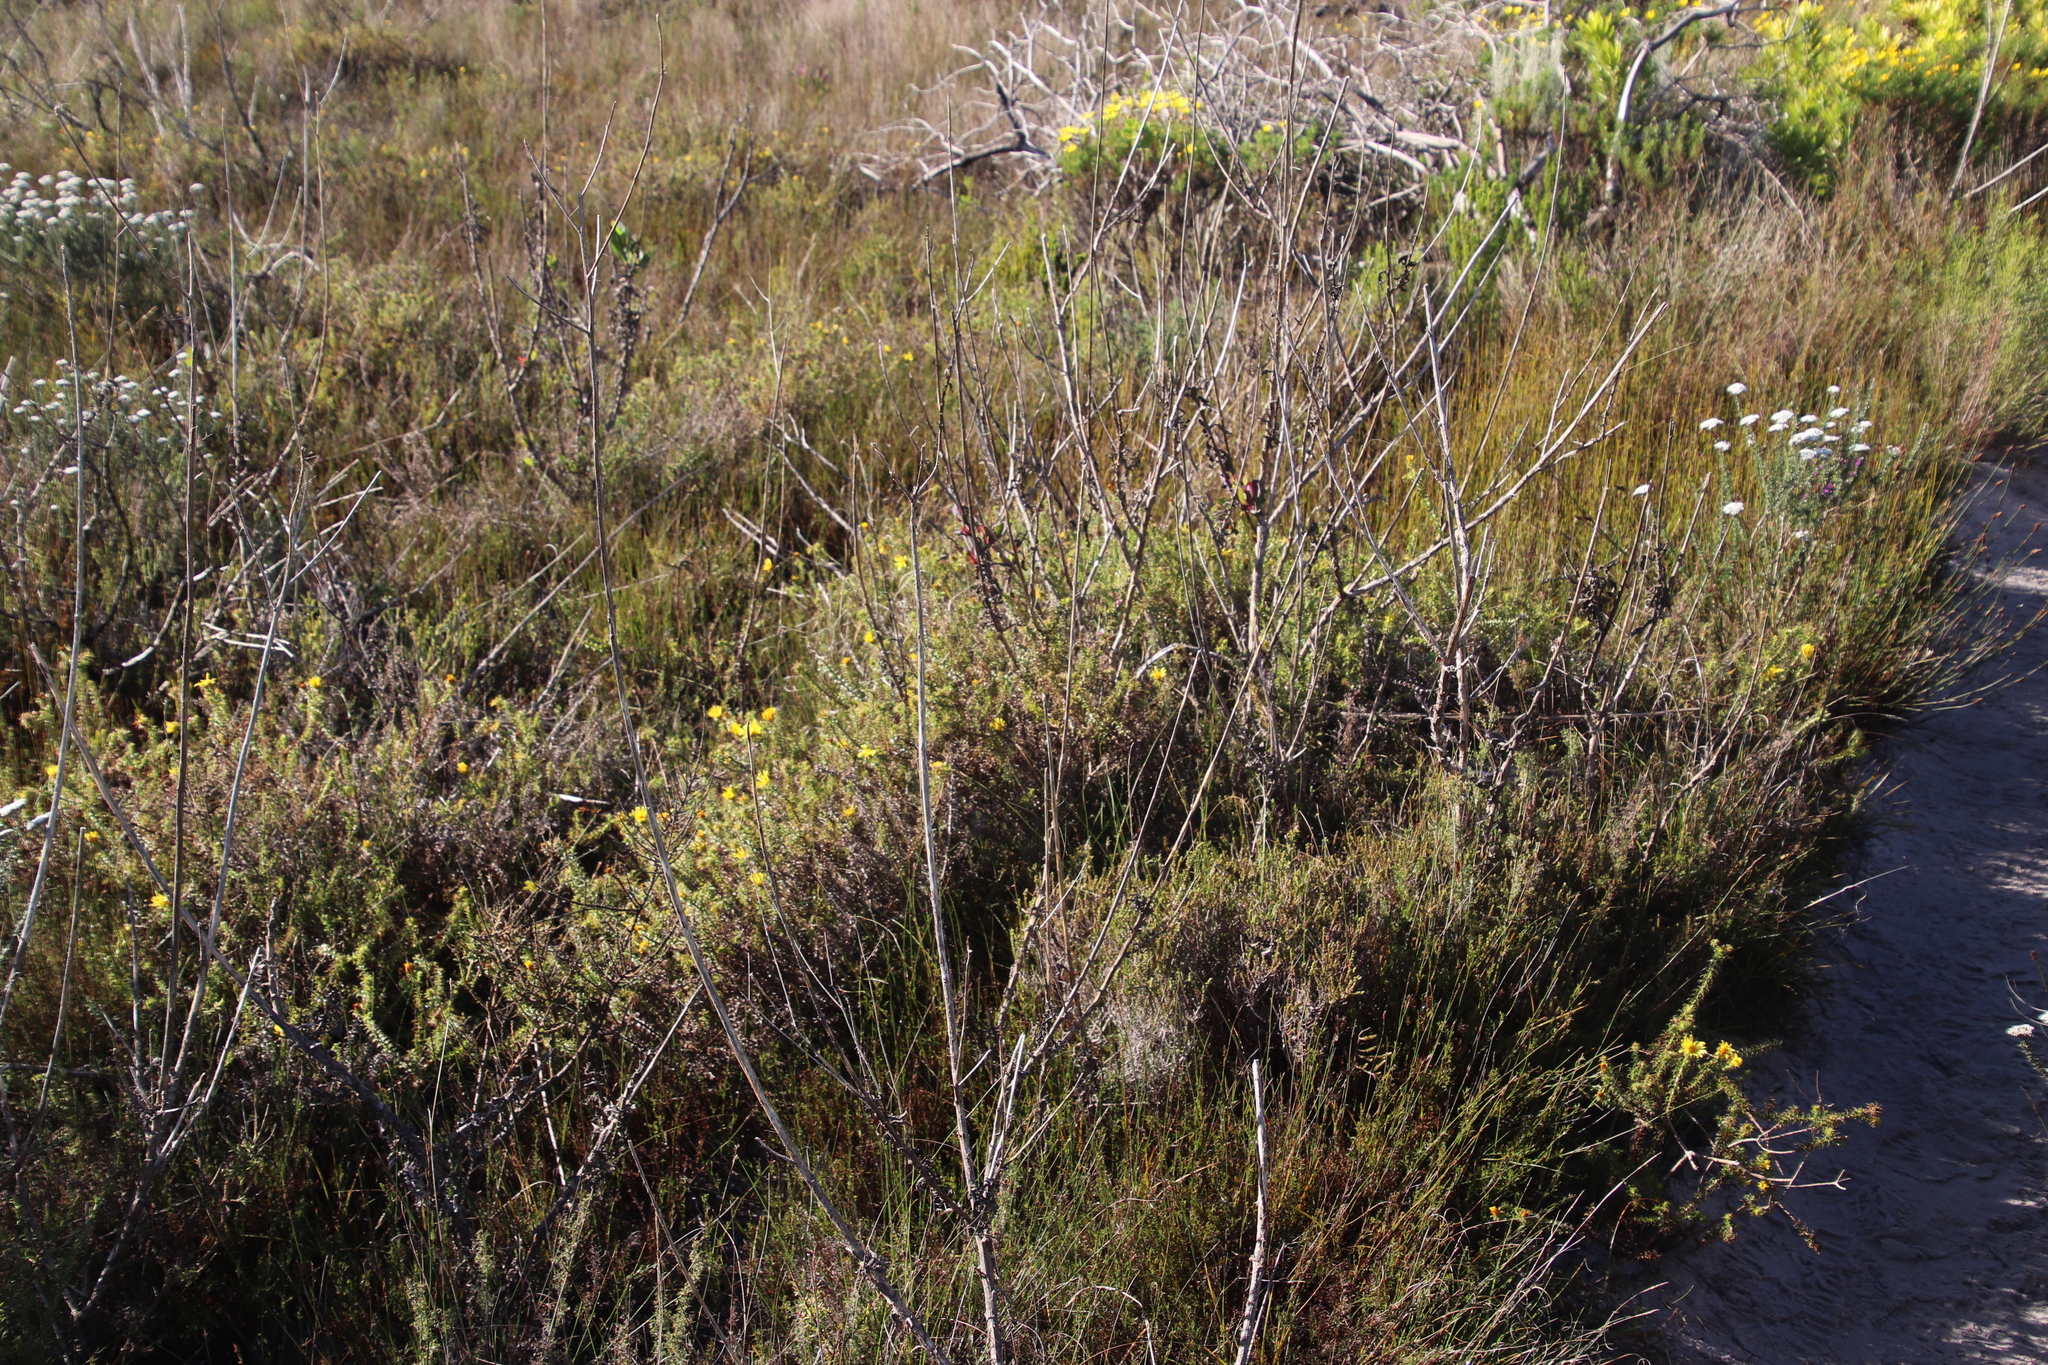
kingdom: Plantae
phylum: Tracheophyta
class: Magnoliopsida
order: Asterales
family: Asteraceae
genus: Cullumia
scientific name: Cullumia setosa
